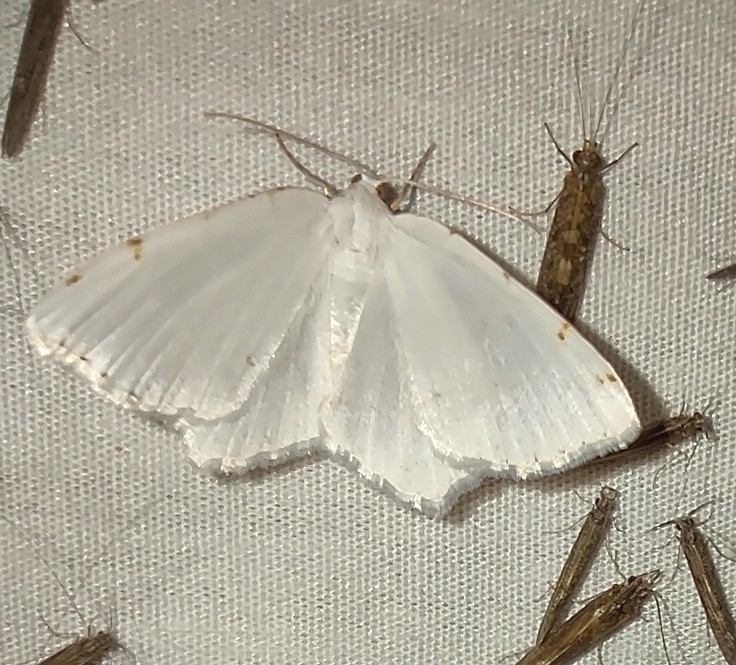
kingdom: Animalia
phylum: Arthropoda
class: Insecta
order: Lepidoptera
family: Geometridae
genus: Macaria
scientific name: Macaria pustularia
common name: Lesser maple spanworm moth
